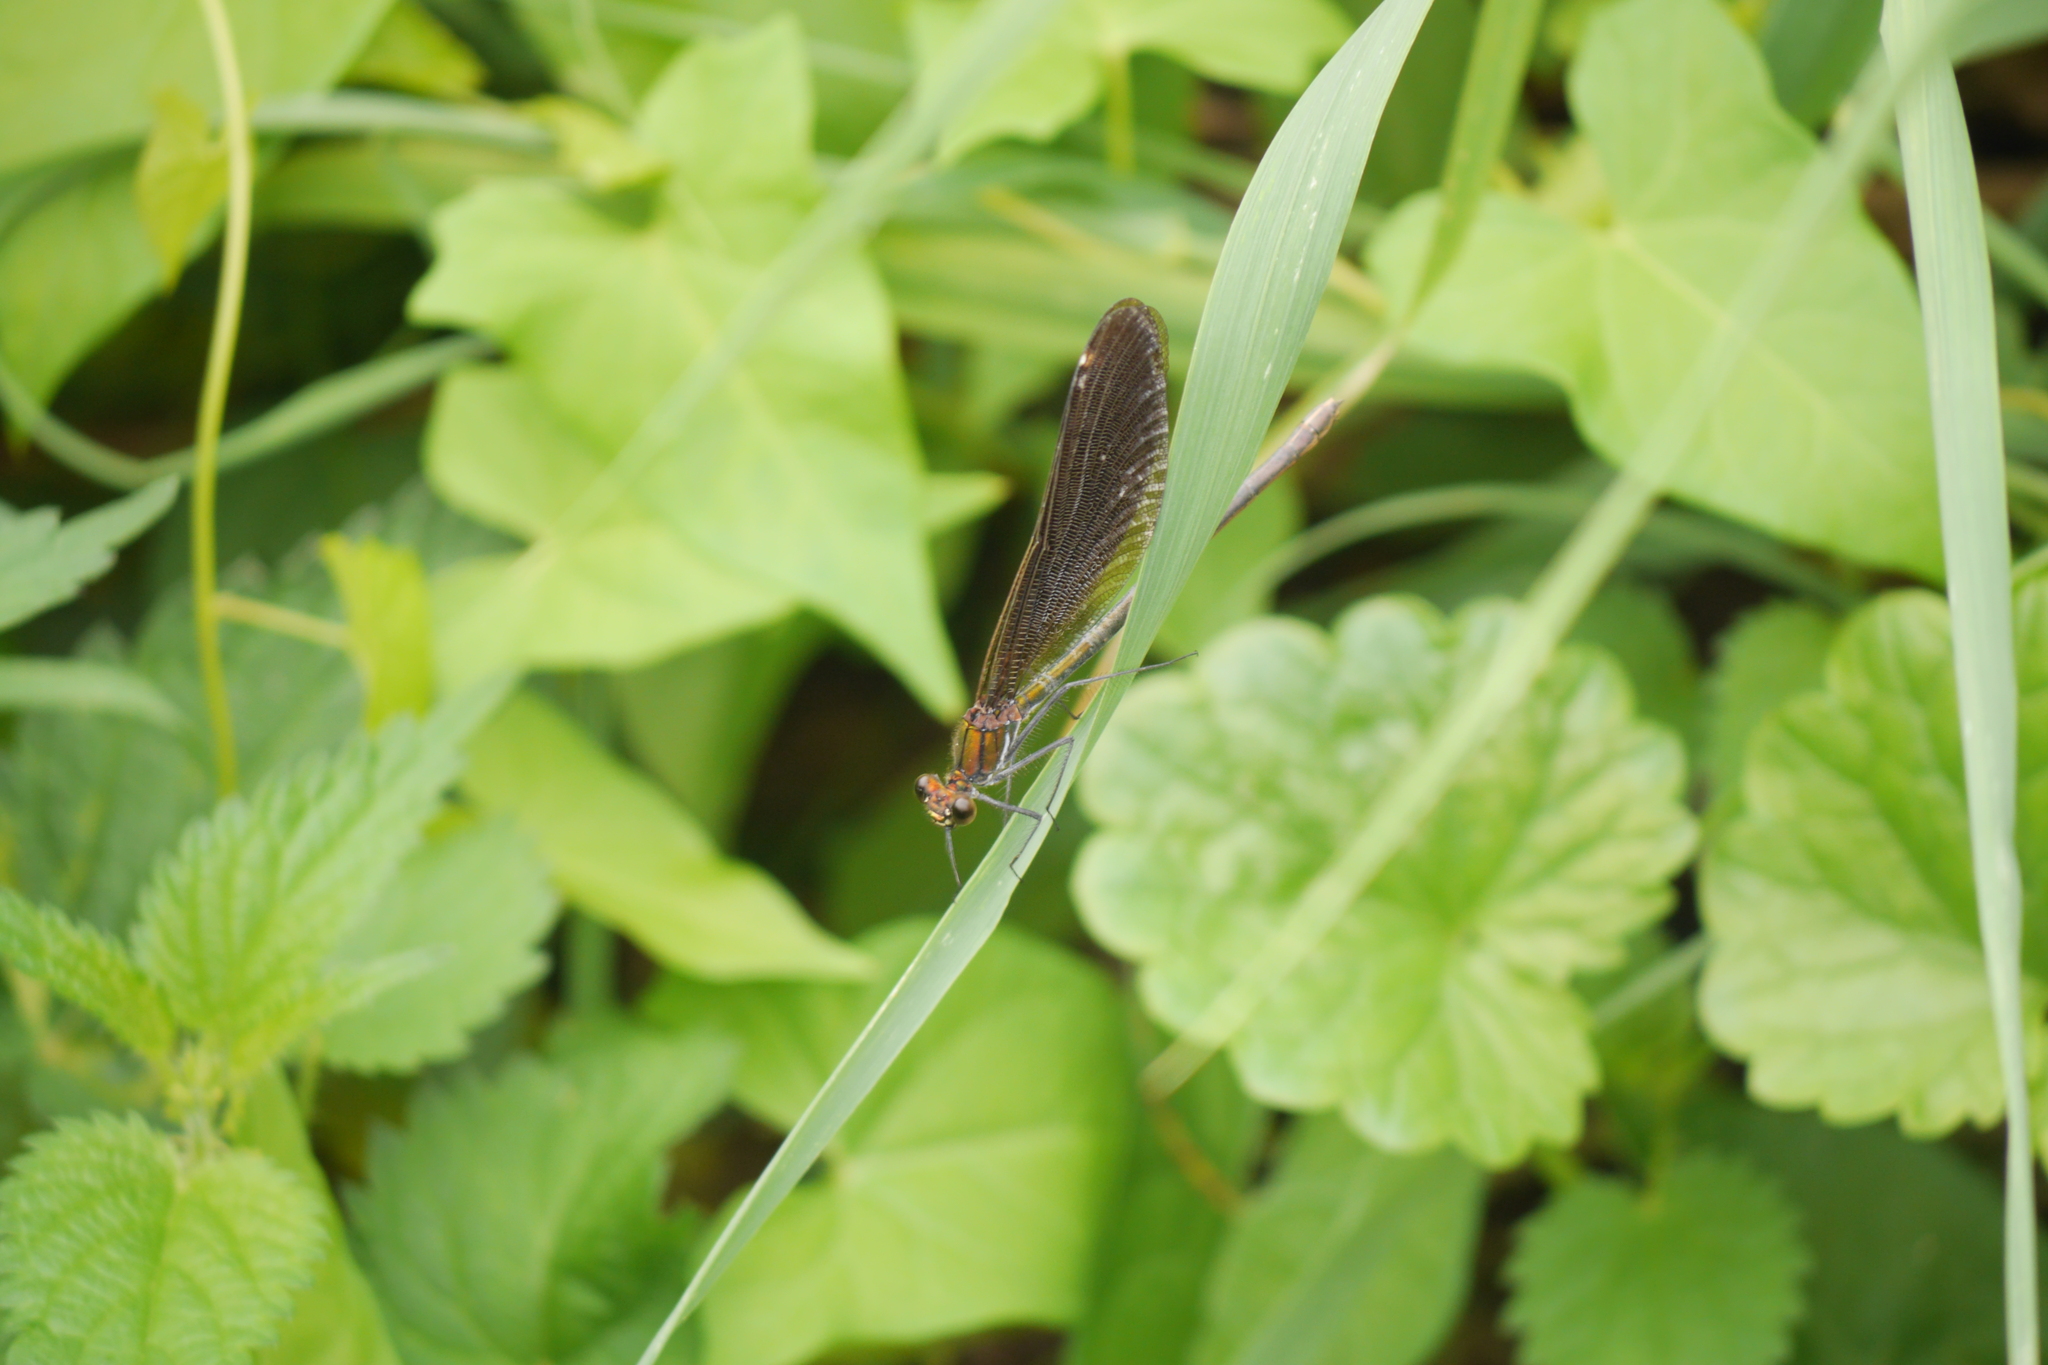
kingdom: Animalia
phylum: Arthropoda
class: Insecta
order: Odonata
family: Calopterygidae
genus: Calopteryx
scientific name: Calopteryx virgo
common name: Beautiful demoiselle
